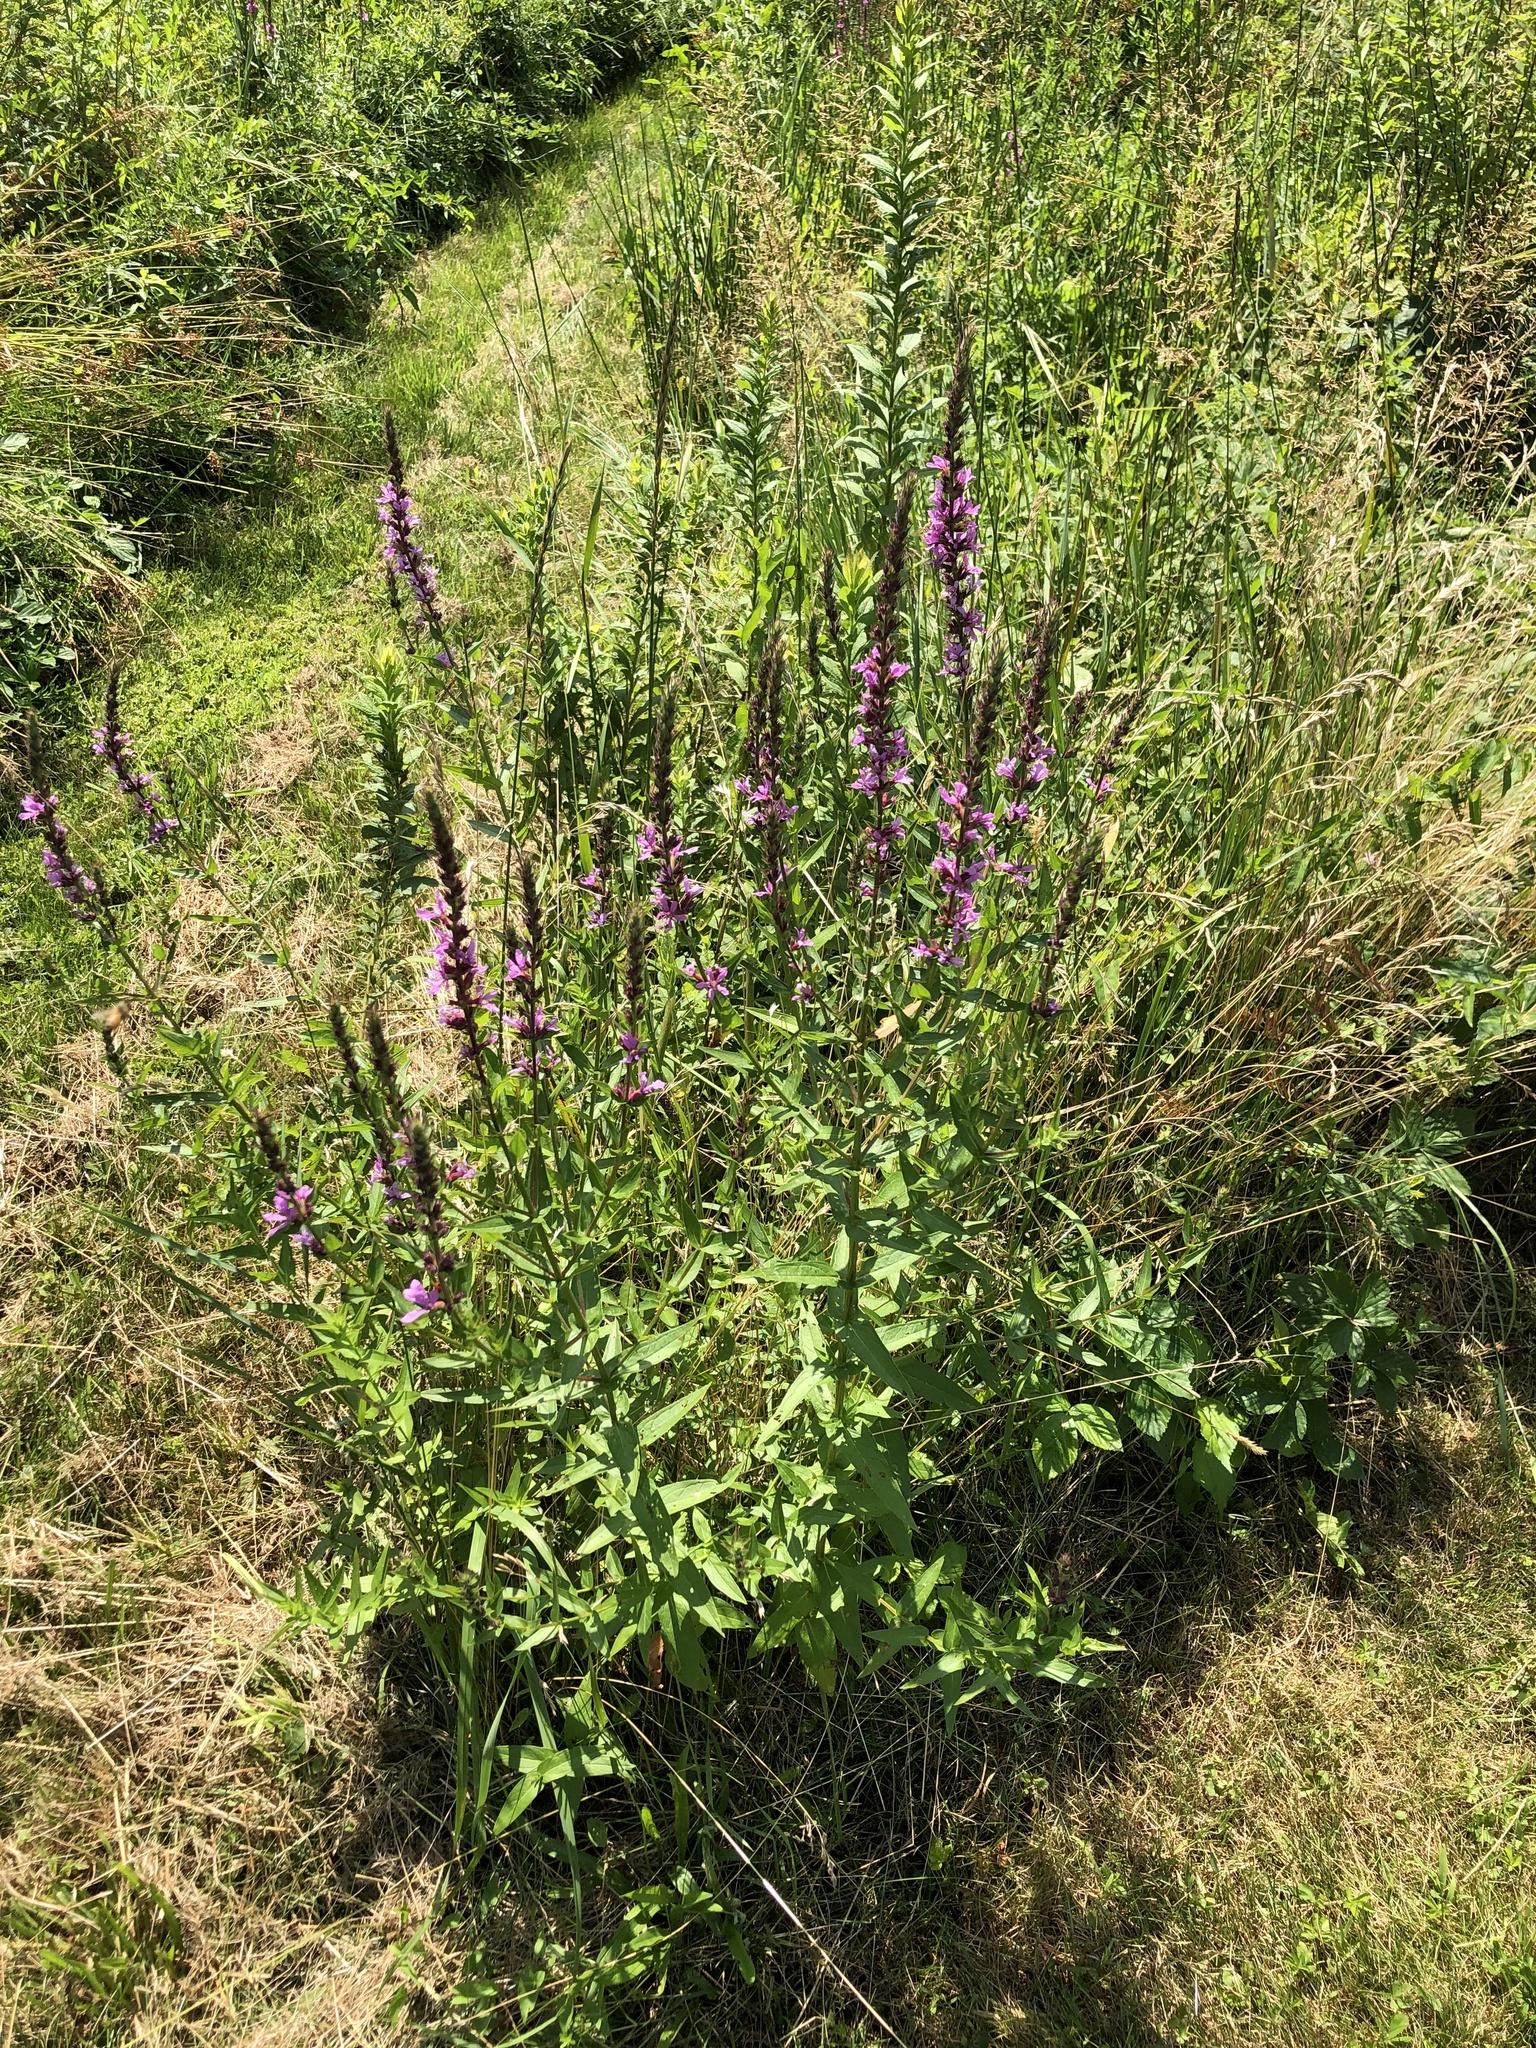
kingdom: Plantae
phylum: Tracheophyta
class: Magnoliopsida
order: Myrtales
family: Lythraceae
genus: Lythrum
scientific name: Lythrum salicaria
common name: Purple loosestrife
